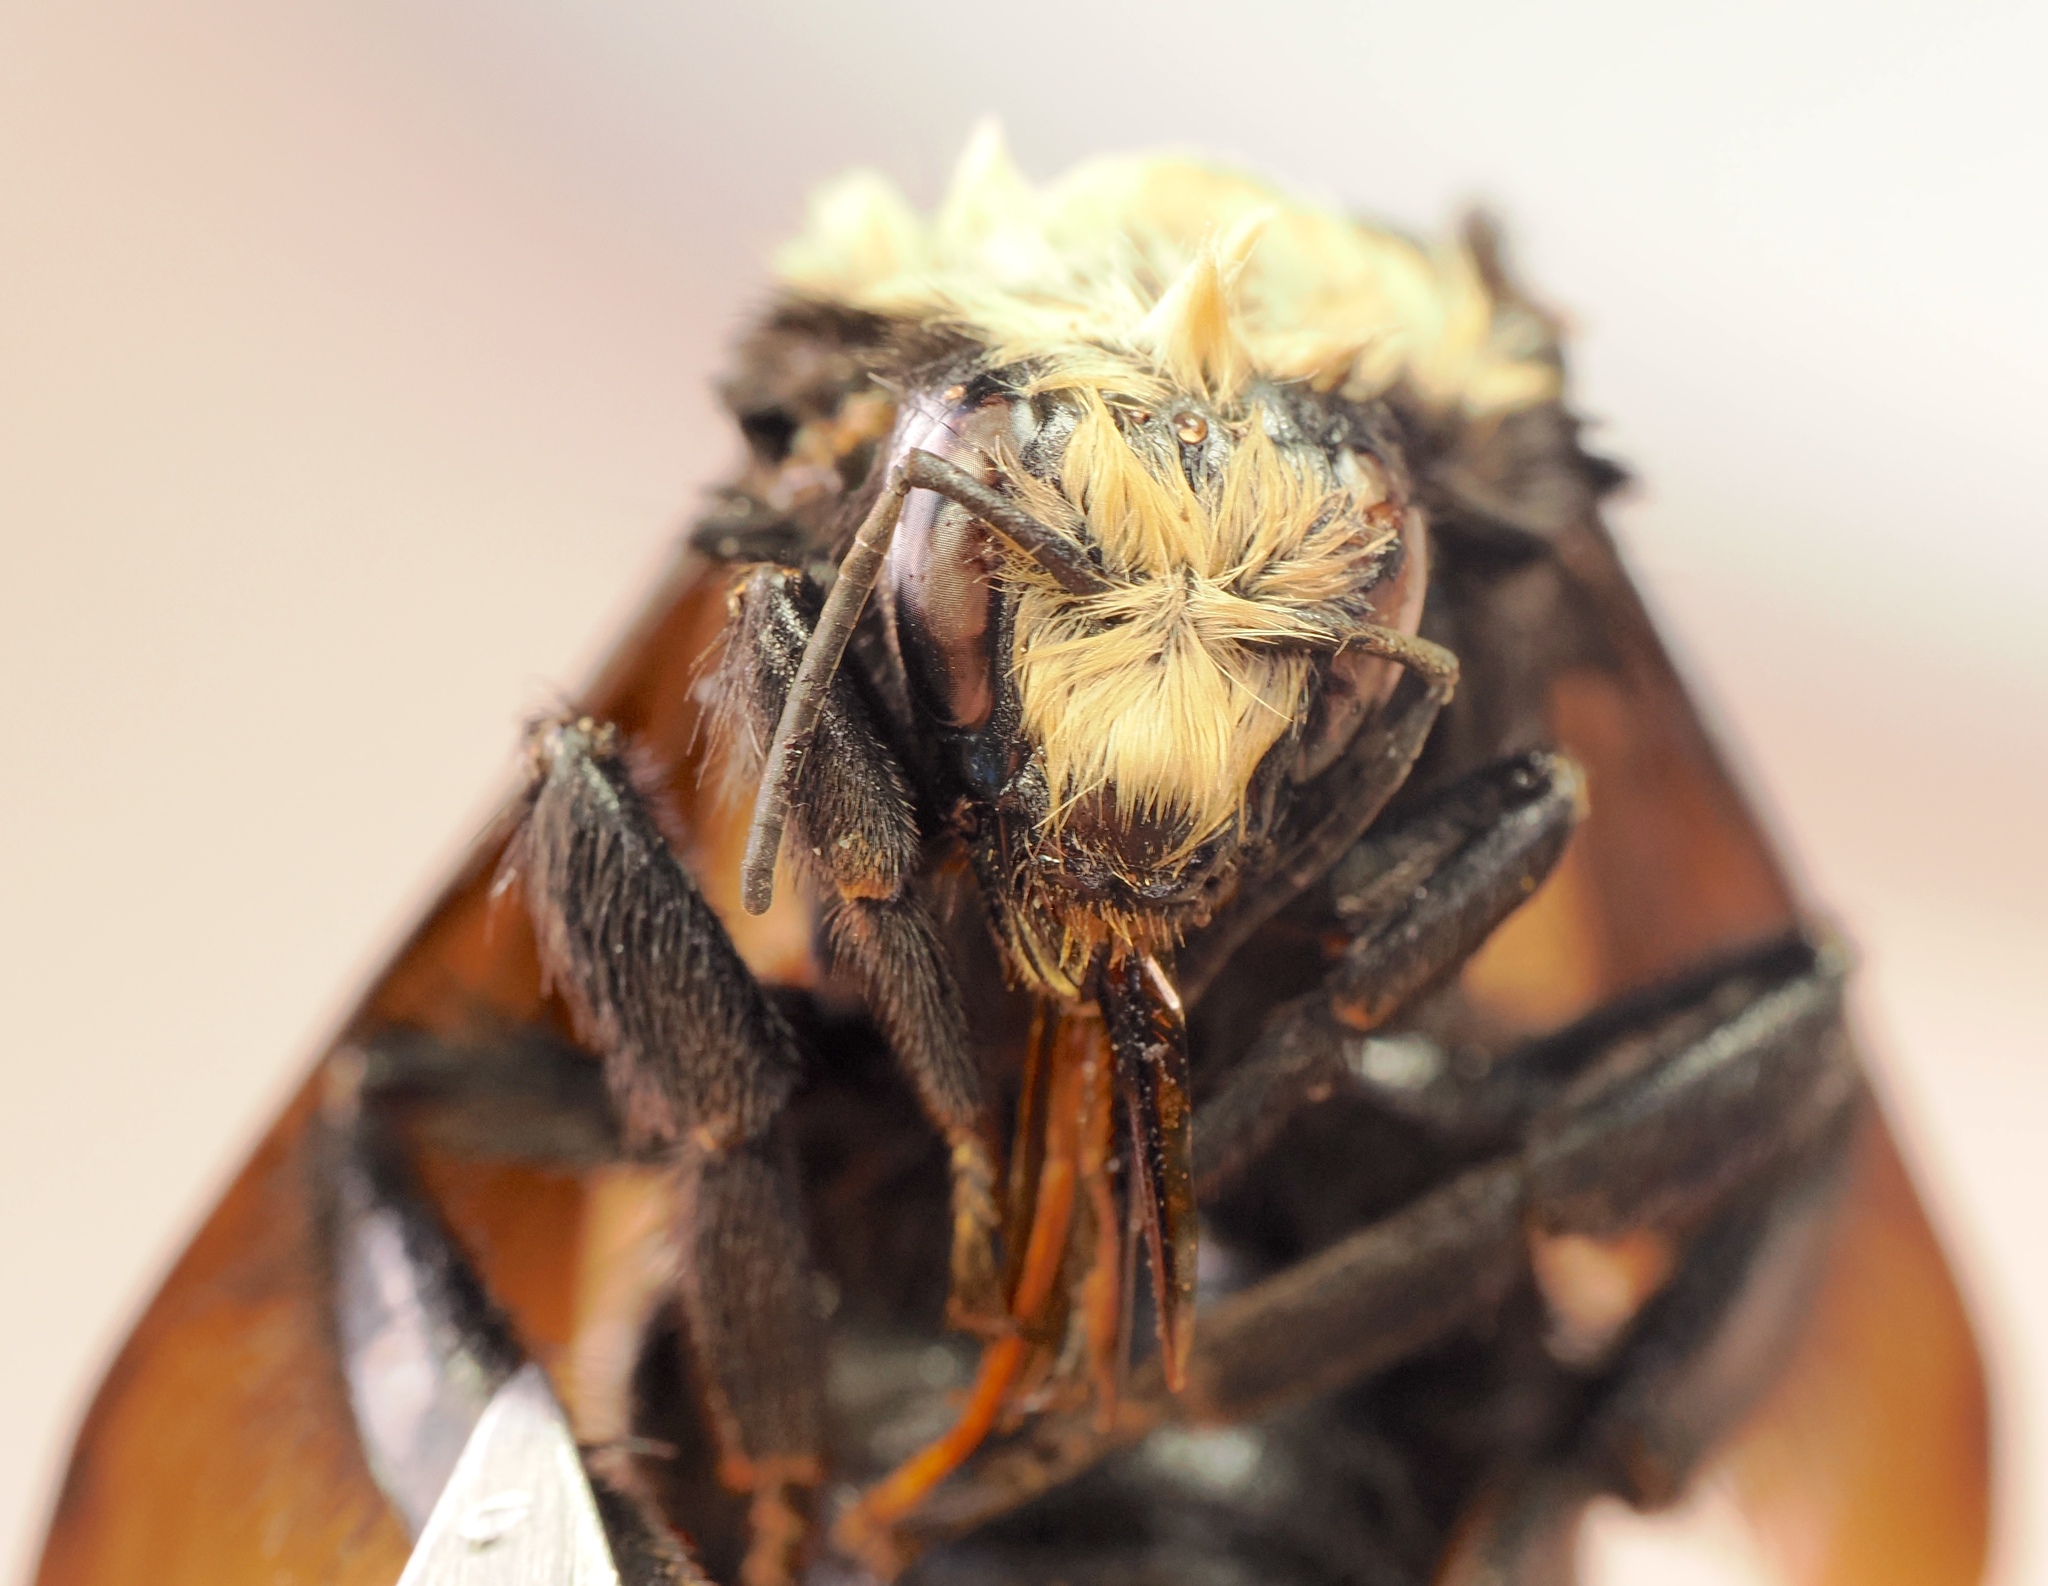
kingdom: Animalia
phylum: Arthropoda
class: Insecta
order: Hymenoptera
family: Apidae
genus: Bombus
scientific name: Bombus vosnesenskii
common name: Vosnesensky bumble bee
